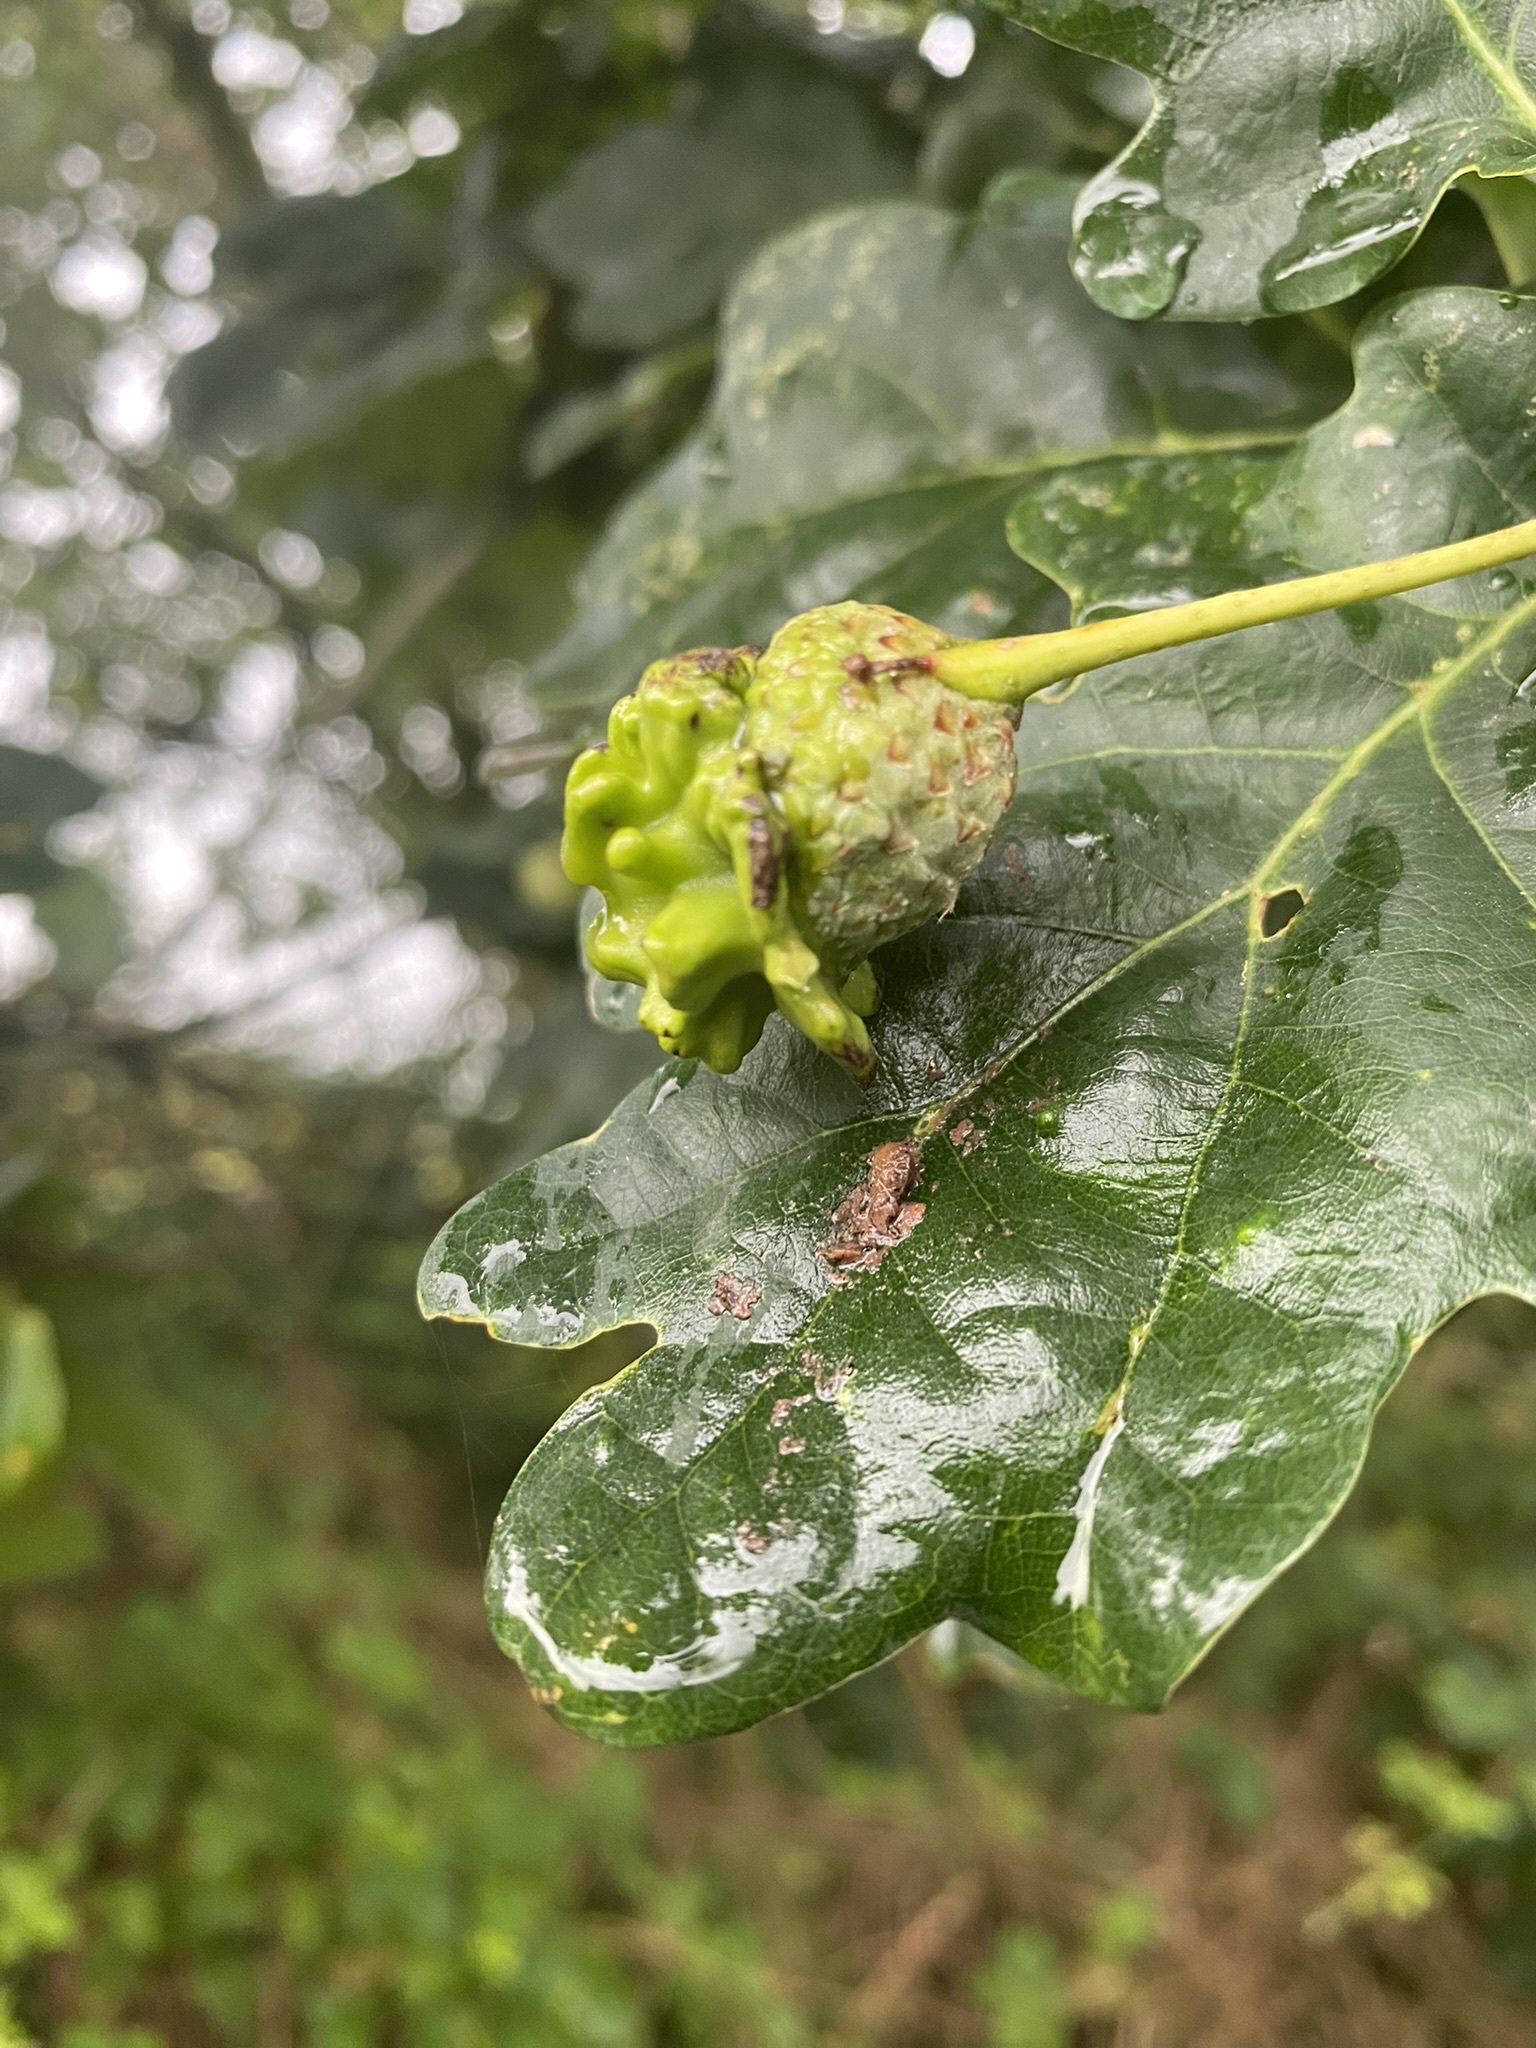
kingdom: Animalia
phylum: Arthropoda
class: Insecta
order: Hymenoptera
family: Cynipidae
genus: Andricus
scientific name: Andricus quercuscalicis
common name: Knopper gall
